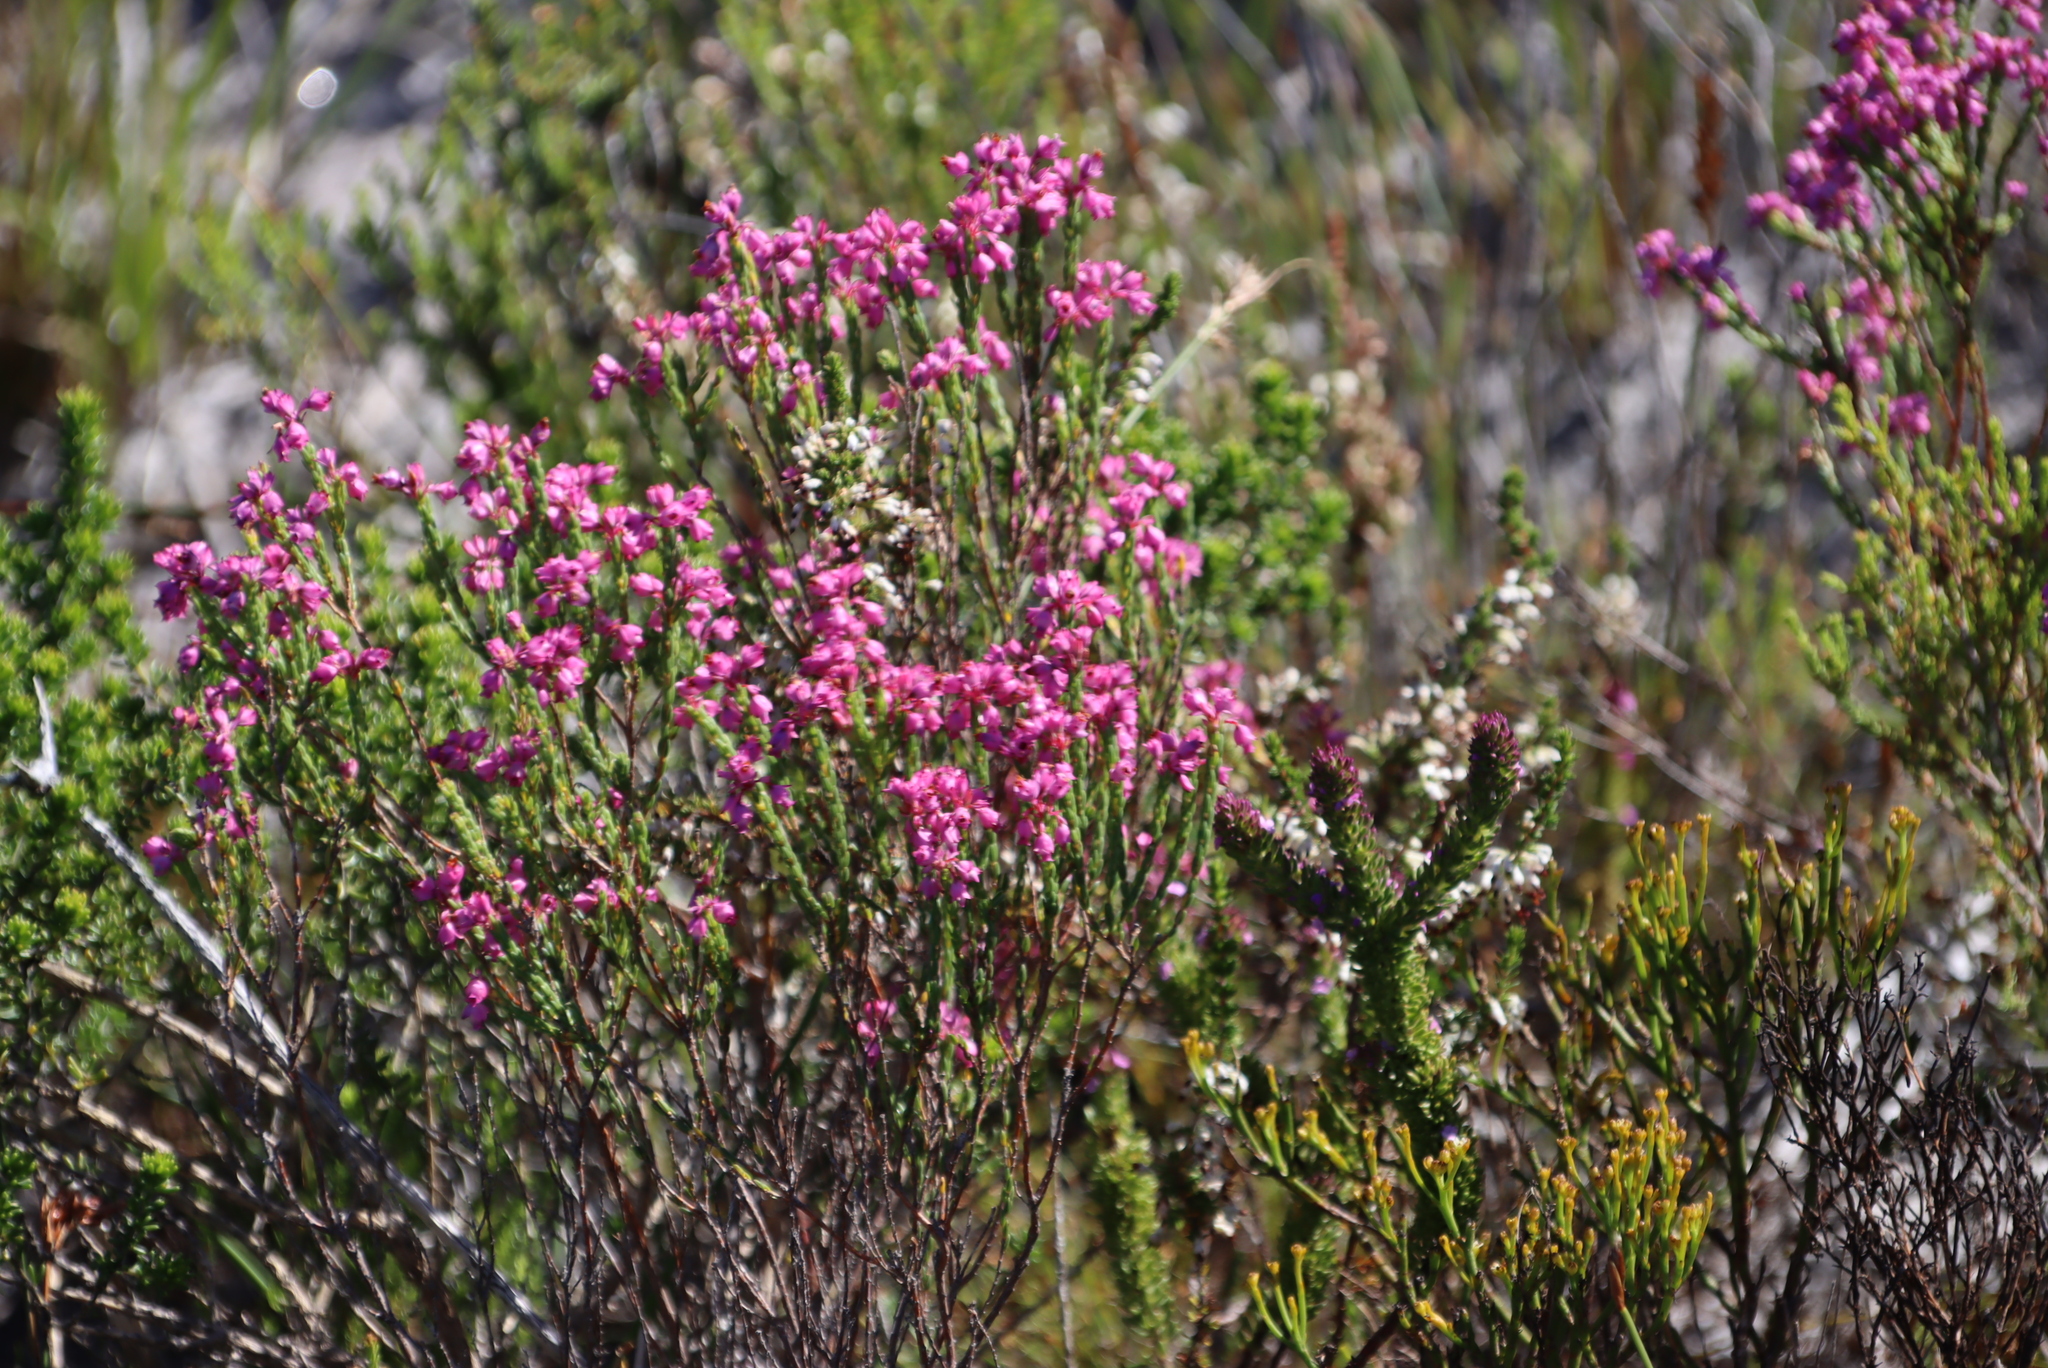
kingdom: Plantae
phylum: Tracheophyta
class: Magnoliopsida
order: Ericales
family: Ericaceae
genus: Erica
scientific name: Erica corifolia
